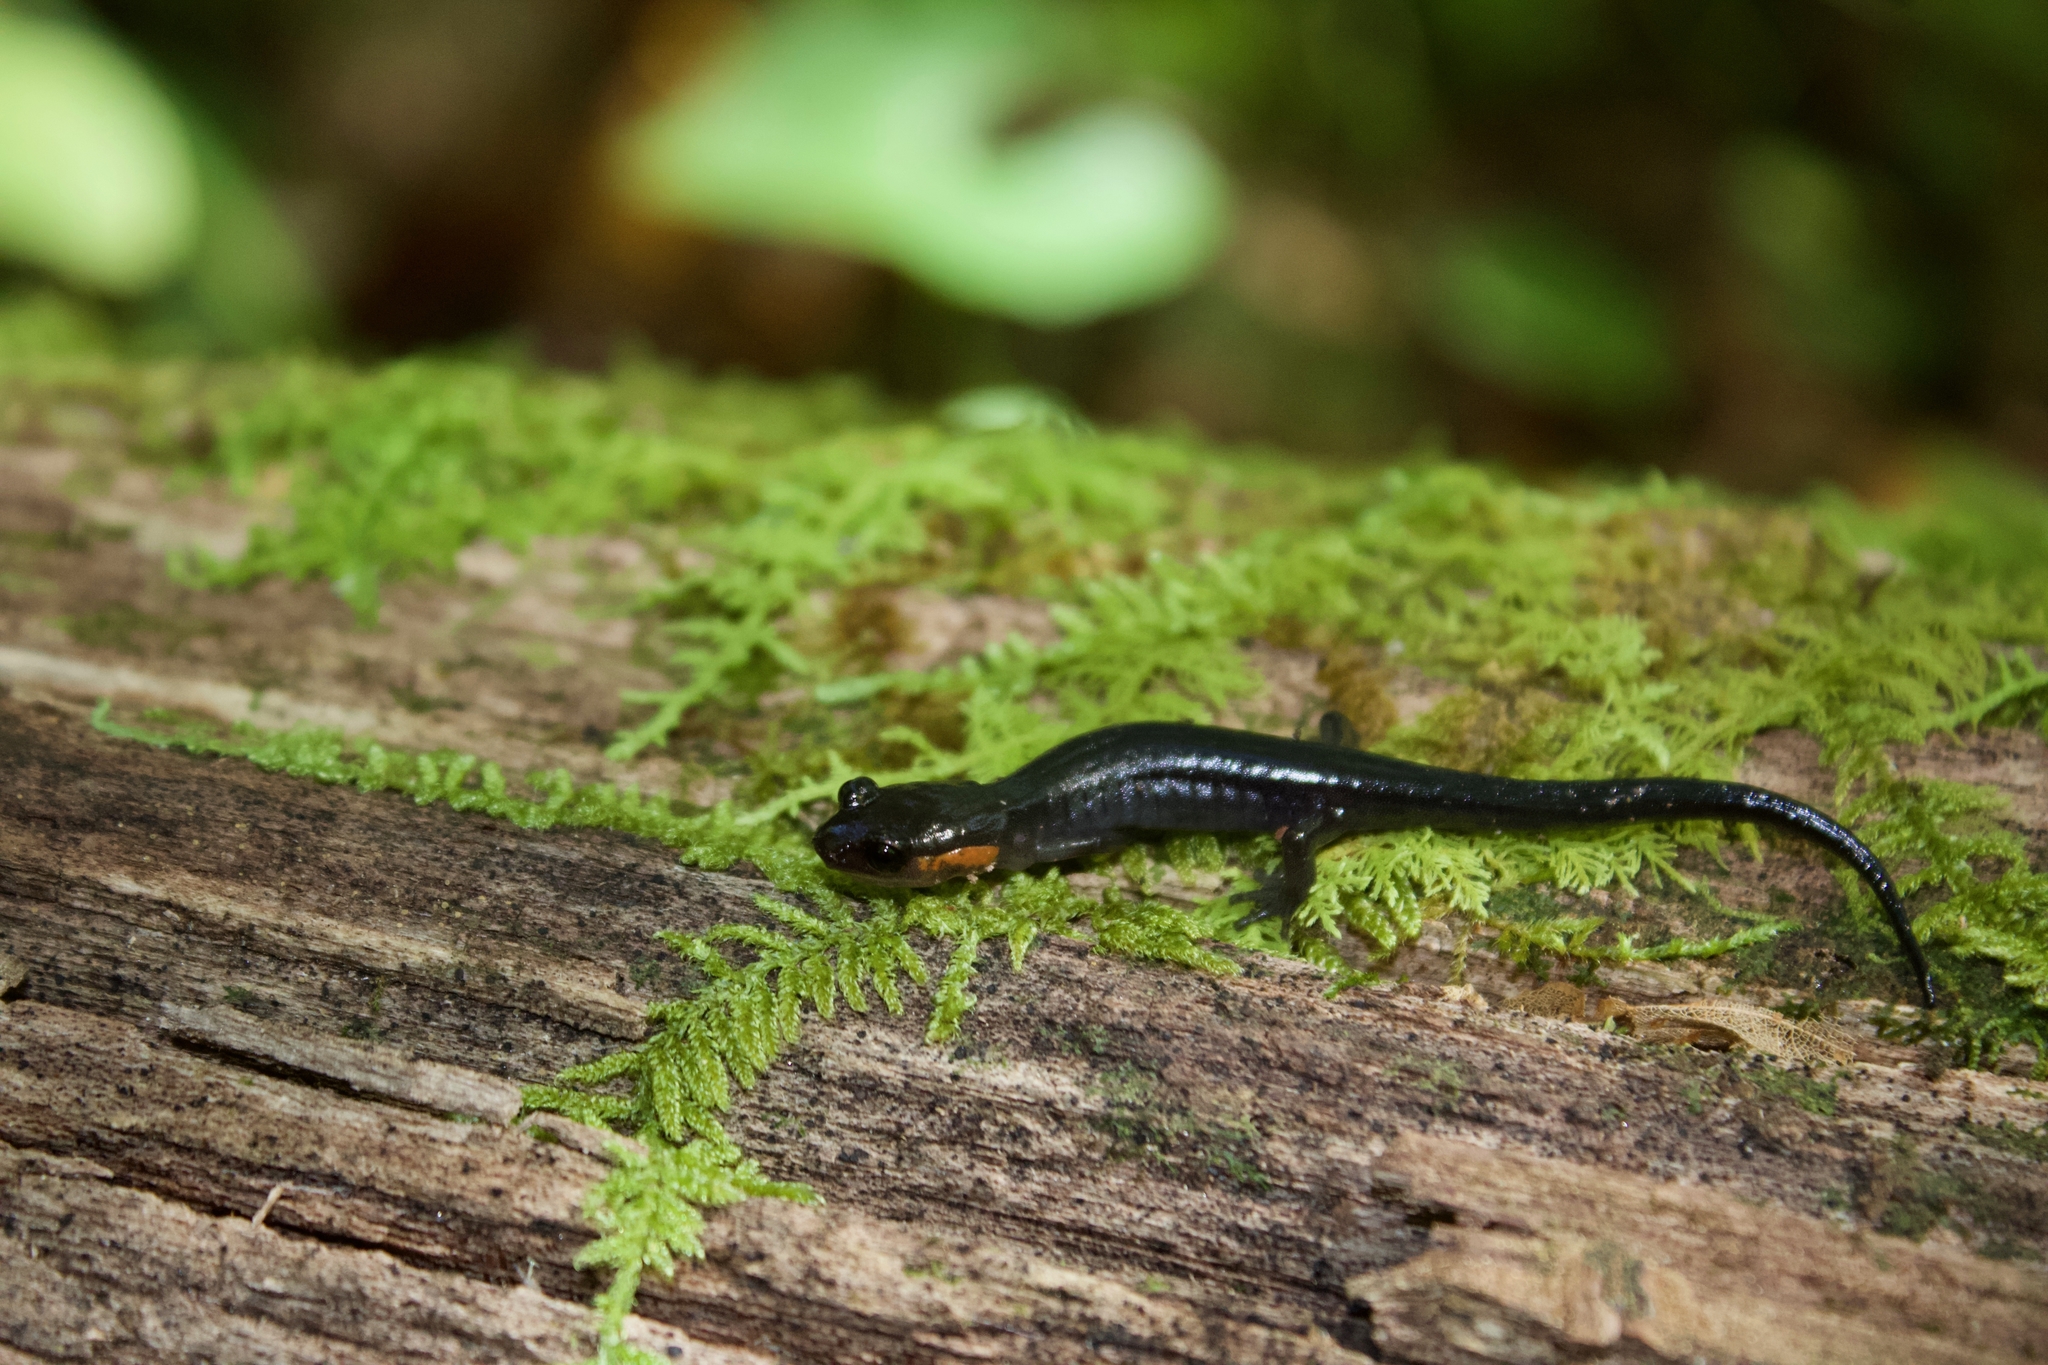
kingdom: Animalia
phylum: Chordata
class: Amphibia
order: Caudata
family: Plethodontidae
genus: Plethodon
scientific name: Plethodon jordani
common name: Red-cheeked salamander
